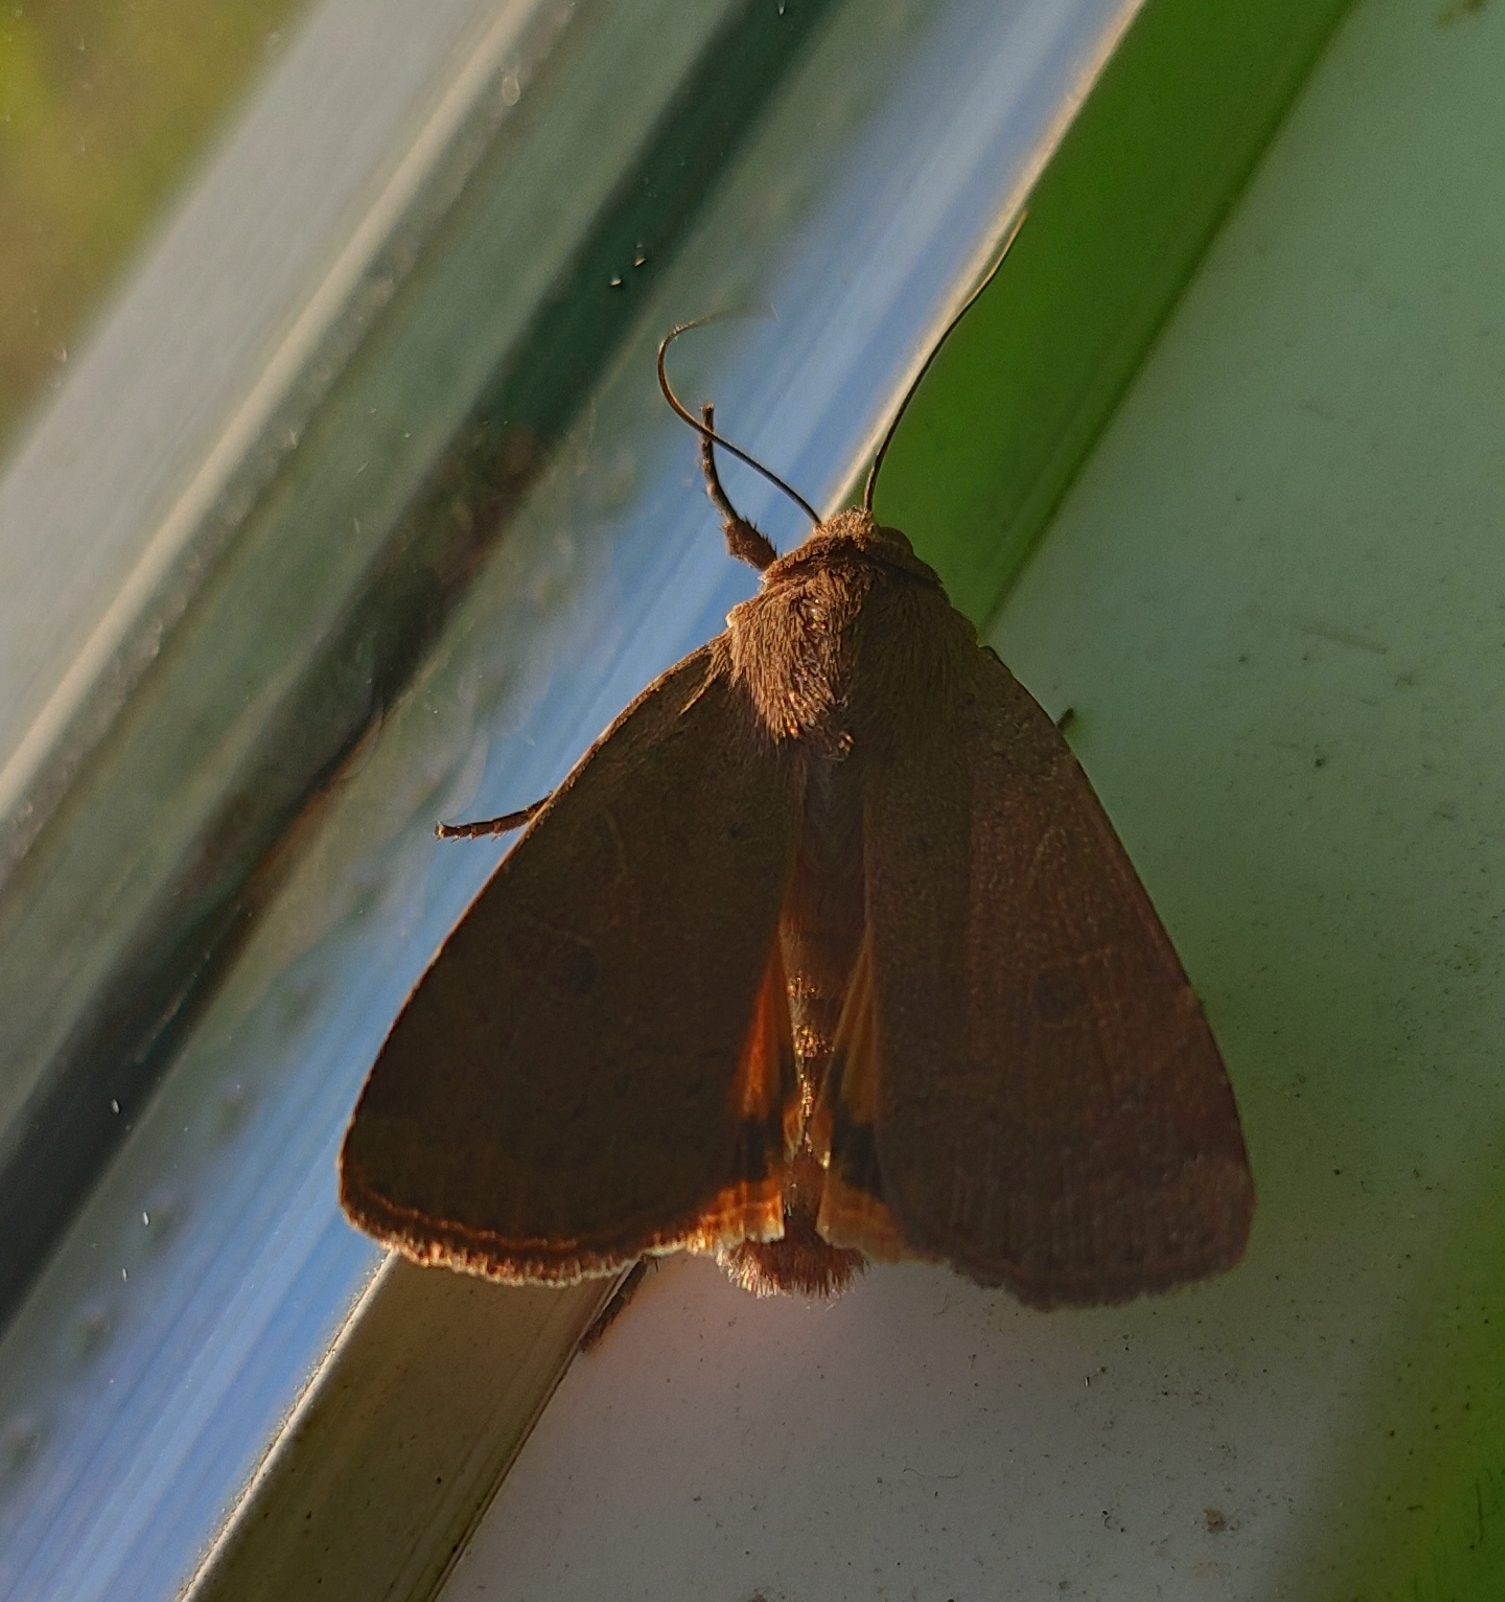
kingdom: Animalia
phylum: Arthropoda
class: Insecta
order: Lepidoptera
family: Noctuidae
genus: Noctua
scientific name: Noctua comes
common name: Lesser yellow underwing
